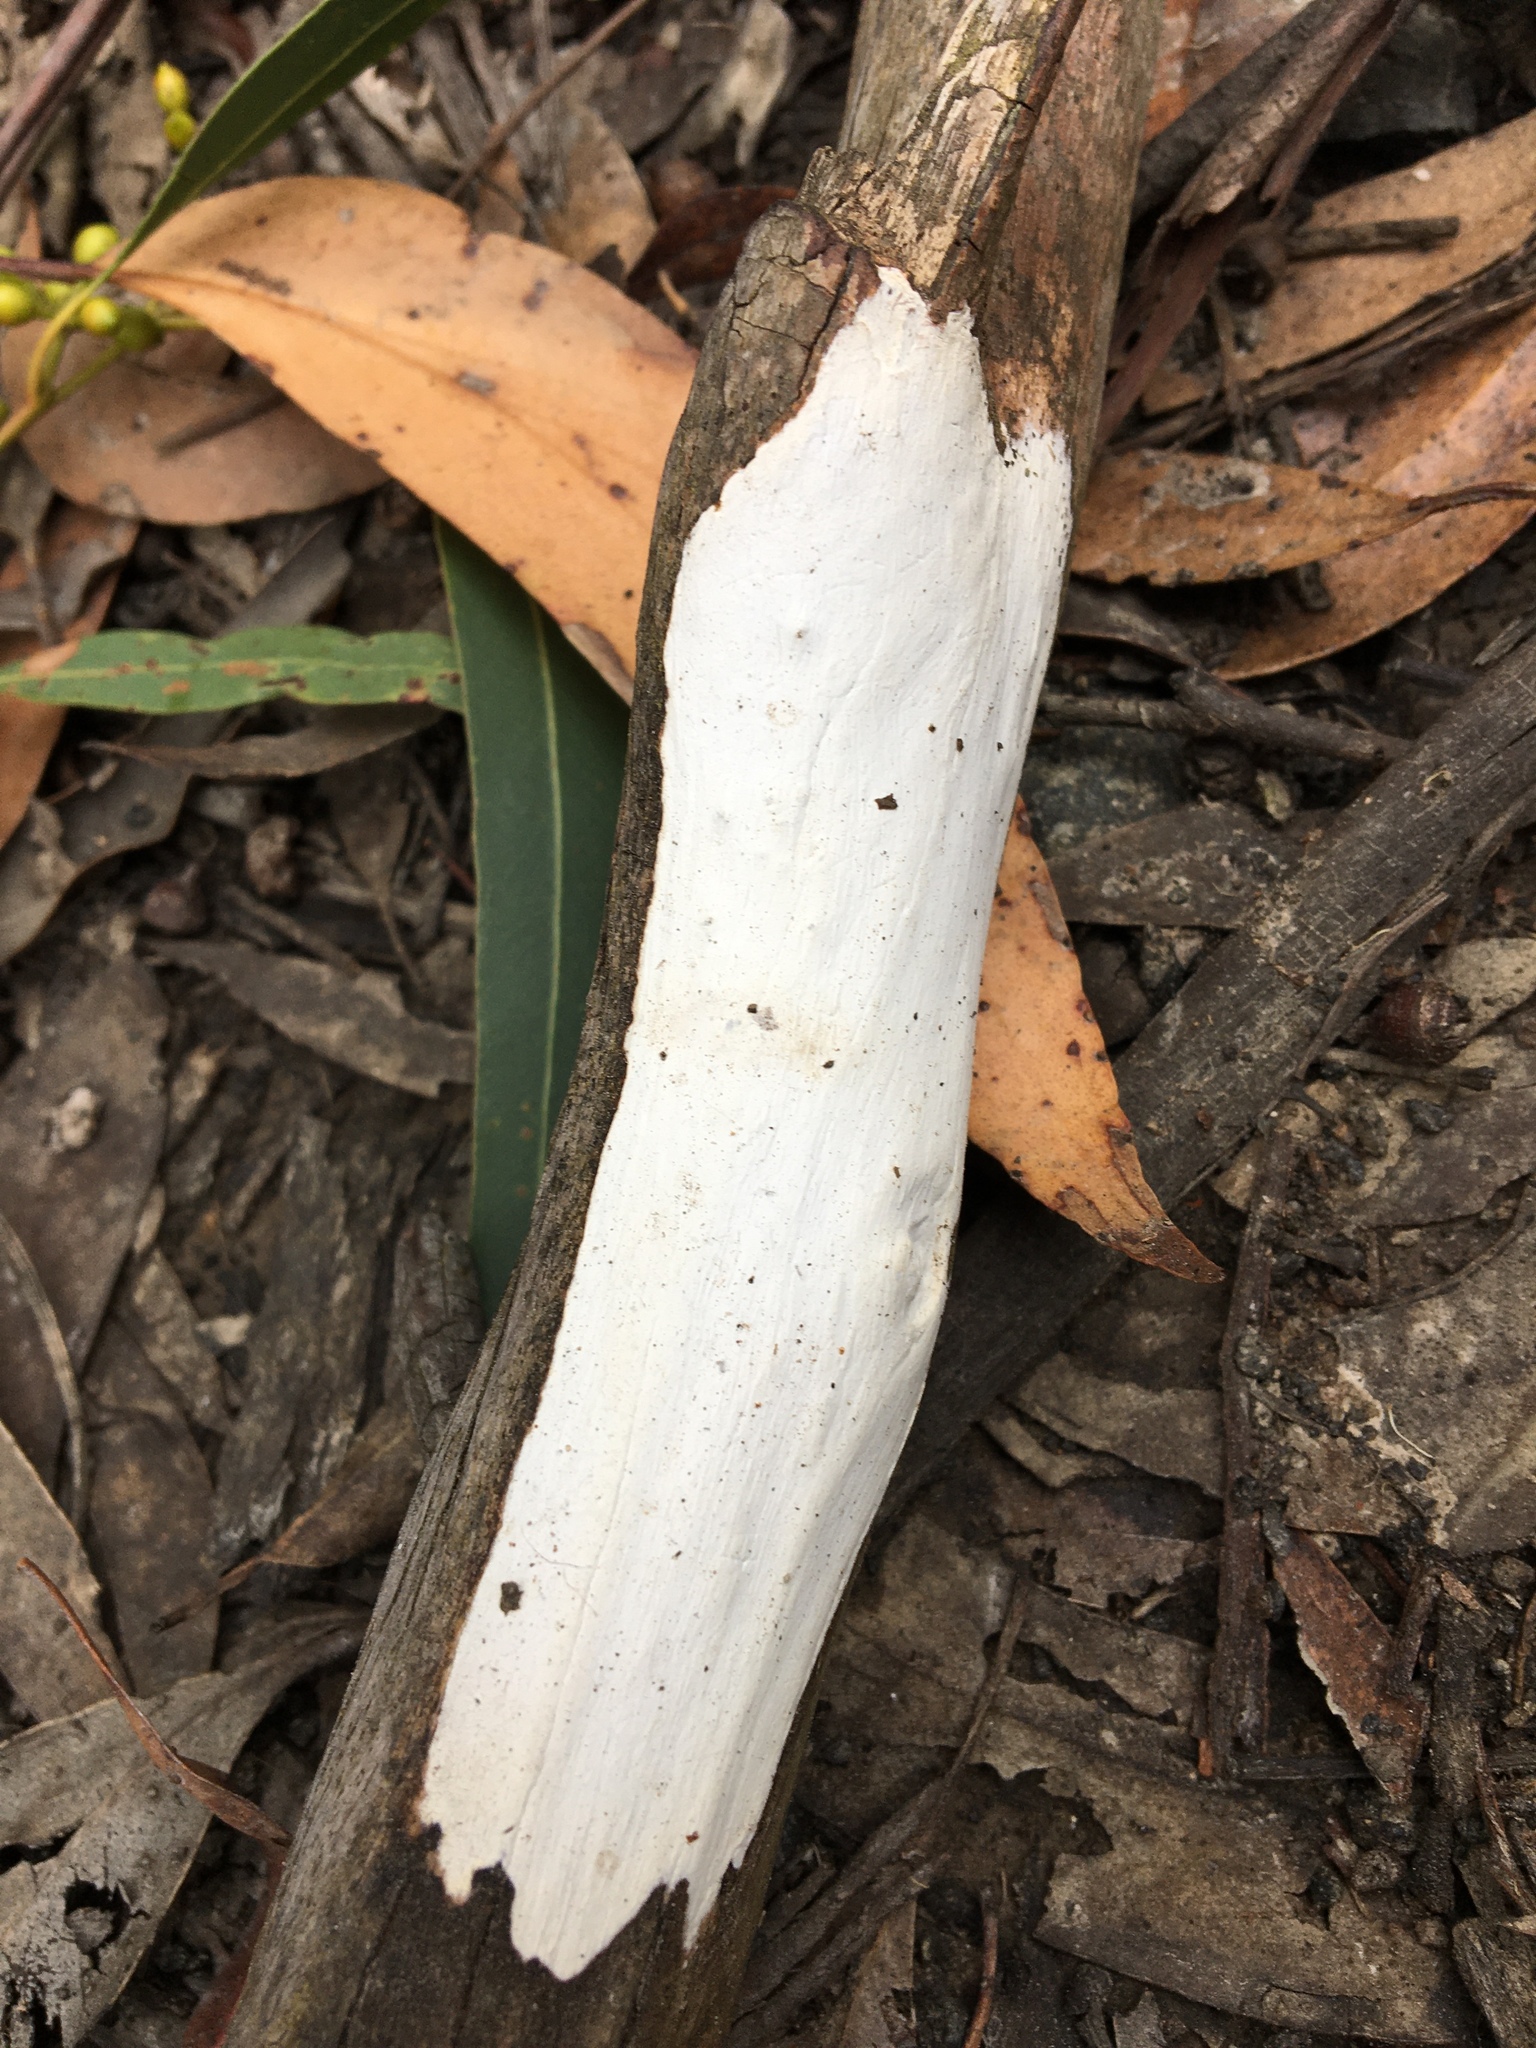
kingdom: Fungi
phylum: Basidiomycota
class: Agaricomycetes
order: Russulales
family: Stereaceae
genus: Aleurodiscus
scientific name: Aleurodiscus sparsus
